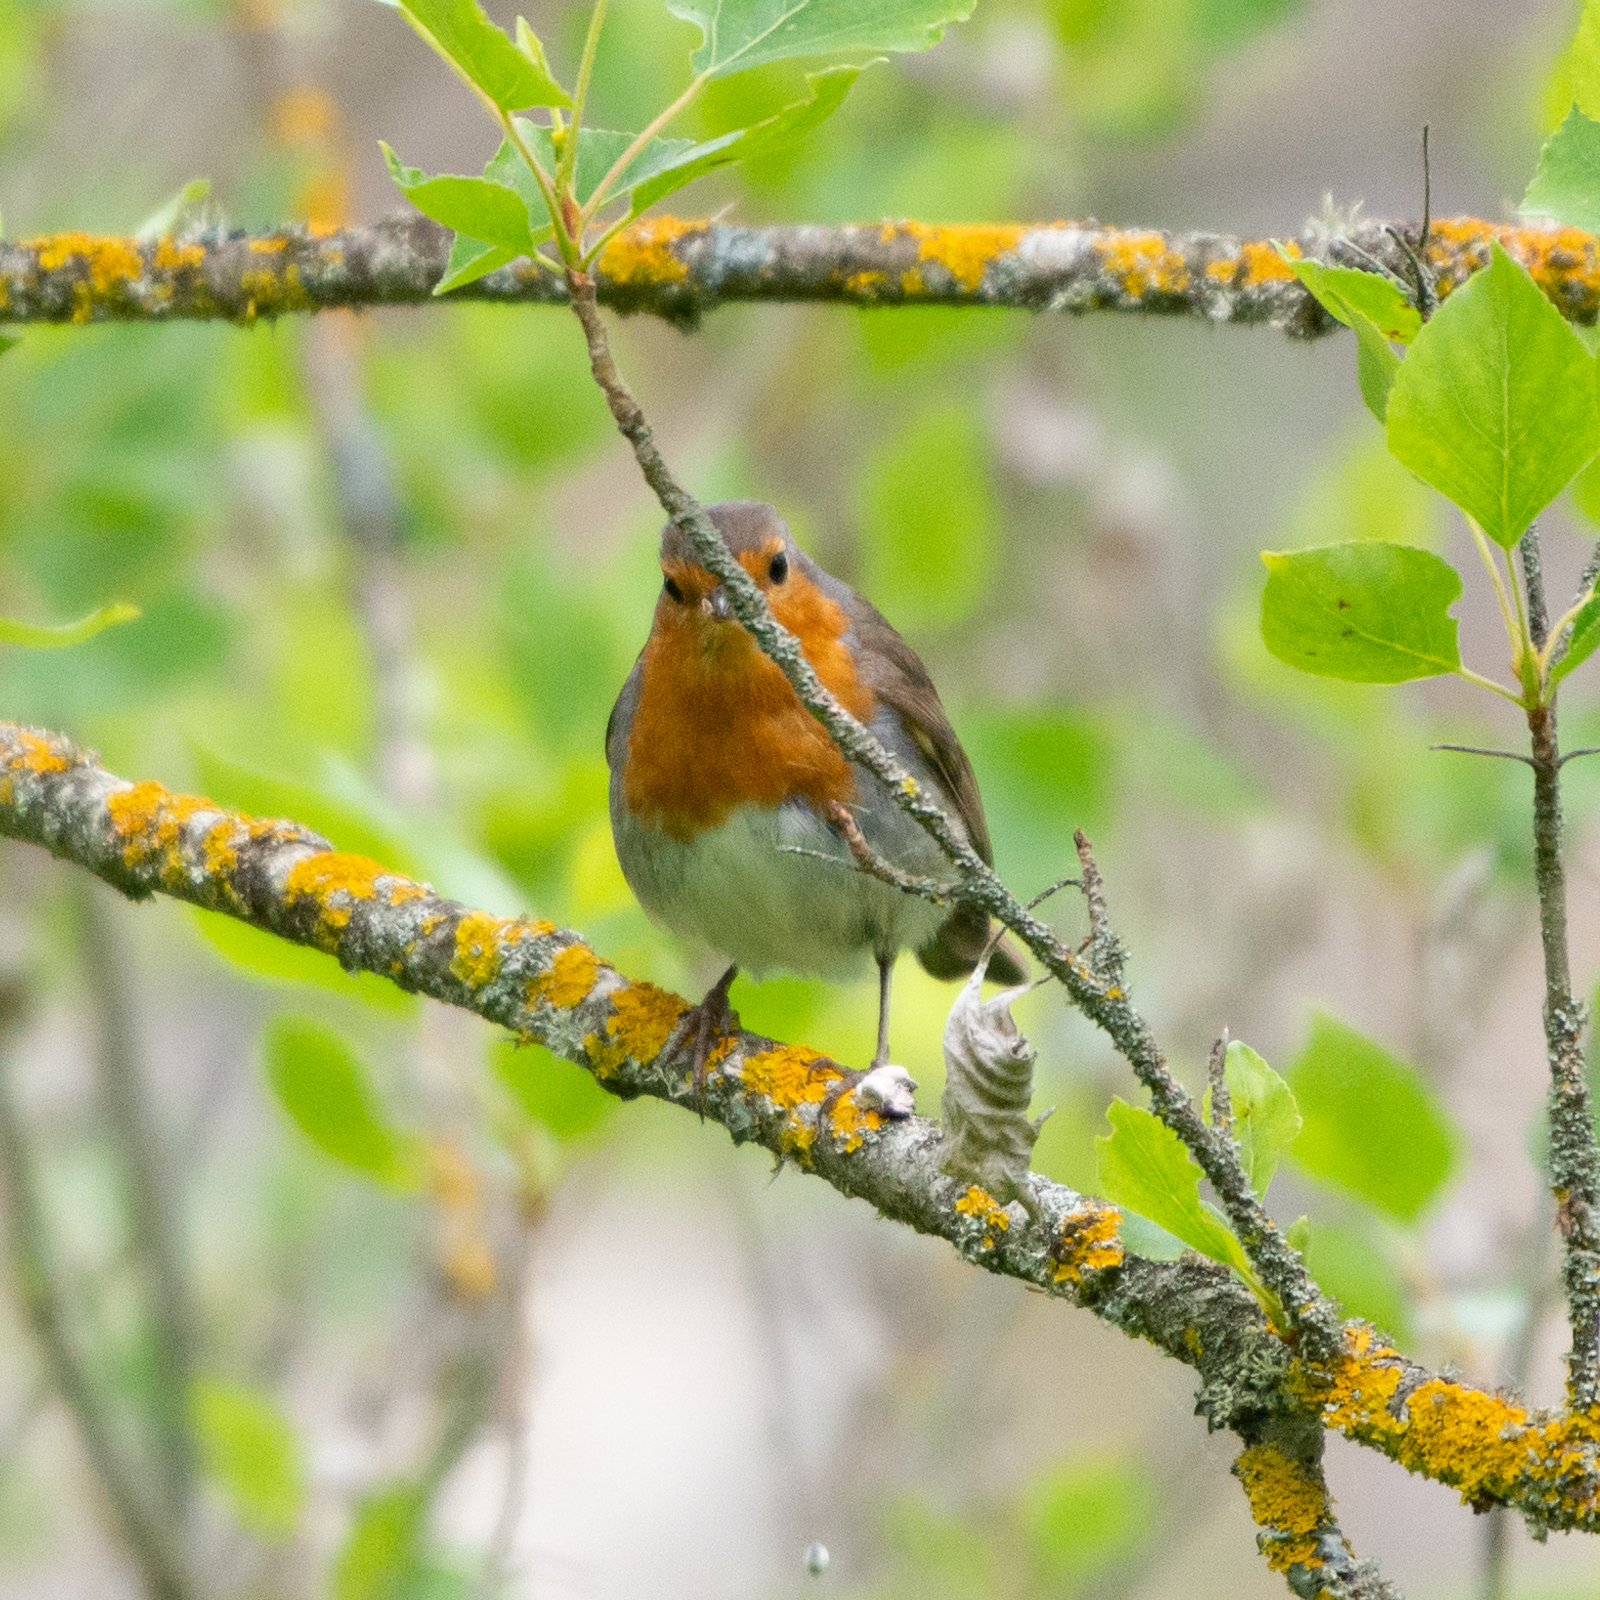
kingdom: Animalia
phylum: Chordata
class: Aves
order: Passeriformes
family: Muscicapidae
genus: Erithacus
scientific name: Erithacus rubecula
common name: European robin
